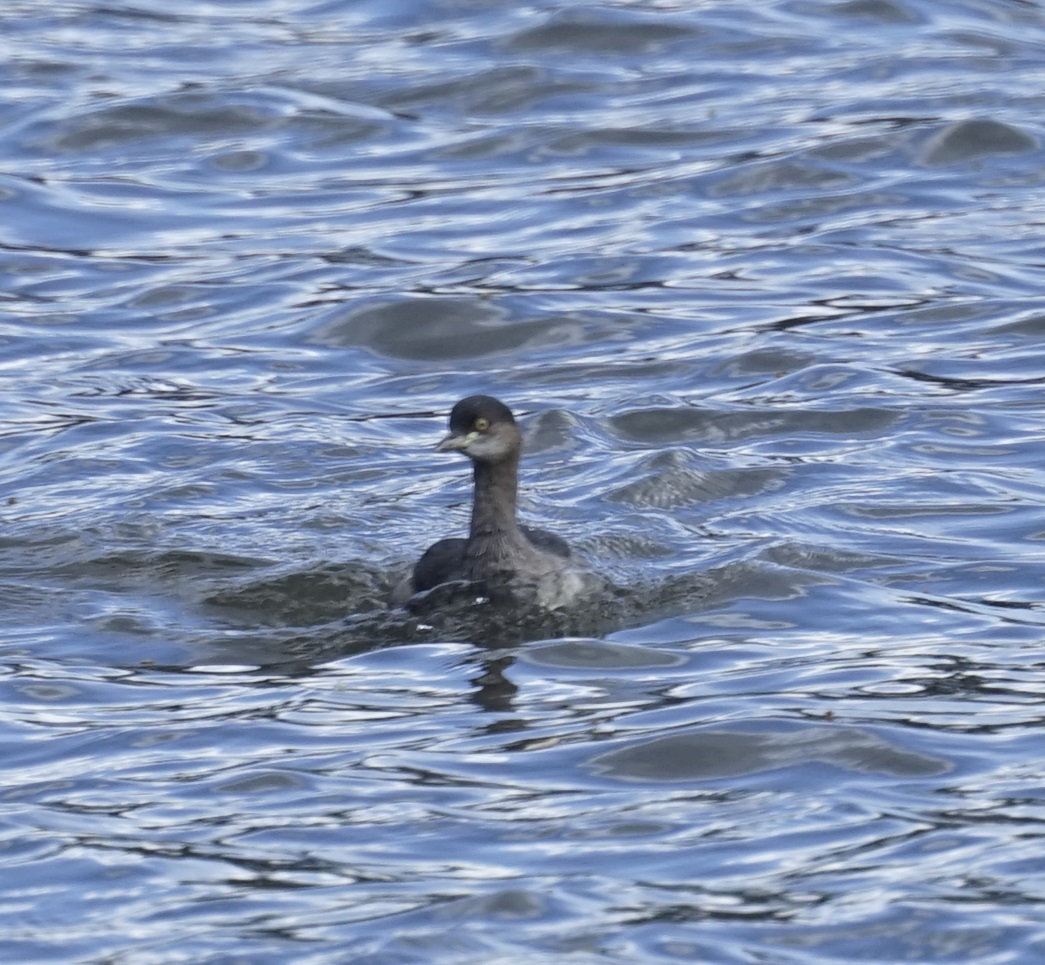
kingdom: Animalia
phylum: Chordata
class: Aves
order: Podicipediformes
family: Podicipedidae
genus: Tachybaptus
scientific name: Tachybaptus novaehollandiae
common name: Australasian grebe
